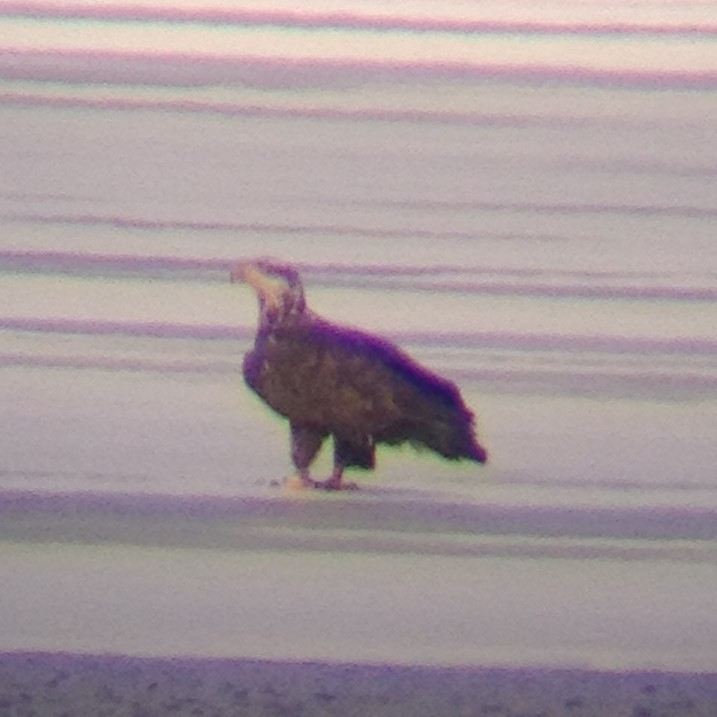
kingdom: Animalia
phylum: Chordata
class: Aves
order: Accipitriformes
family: Accipitridae
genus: Haliaeetus
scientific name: Haliaeetus leucocephalus
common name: Bald eagle
